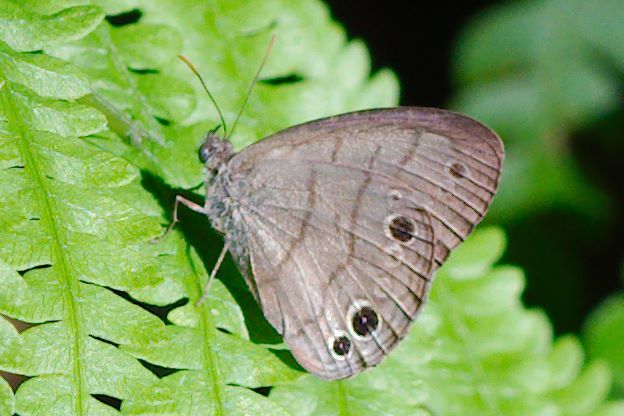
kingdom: Animalia
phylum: Arthropoda
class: Insecta
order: Lepidoptera
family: Nymphalidae
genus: Hermeuptychia
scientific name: Hermeuptychia hermes
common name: Hermes satyr
